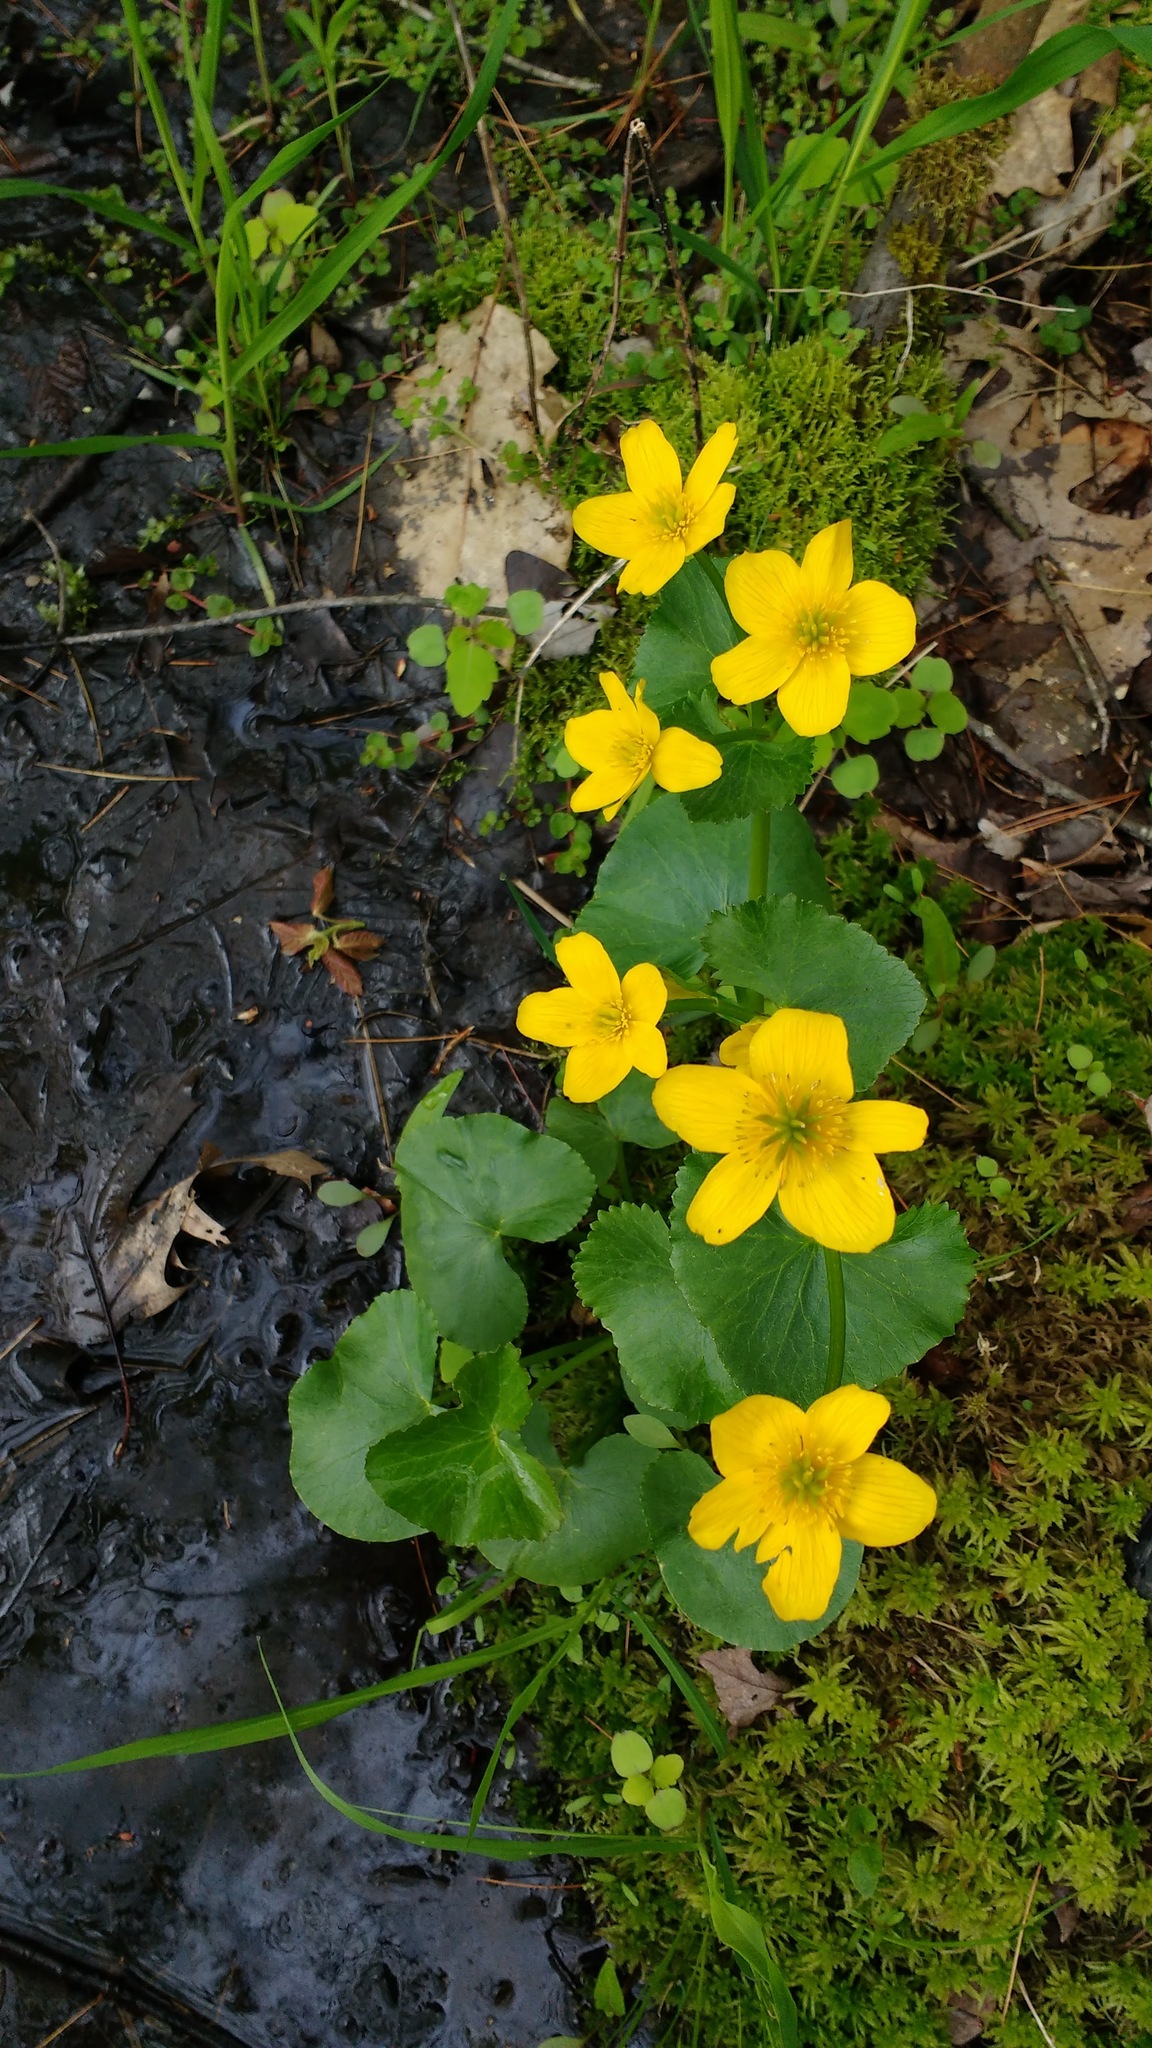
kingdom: Plantae
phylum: Tracheophyta
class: Magnoliopsida
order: Ranunculales
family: Ranunculaceae
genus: Caltha
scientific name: Caltha palustris
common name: Marsh marigold
